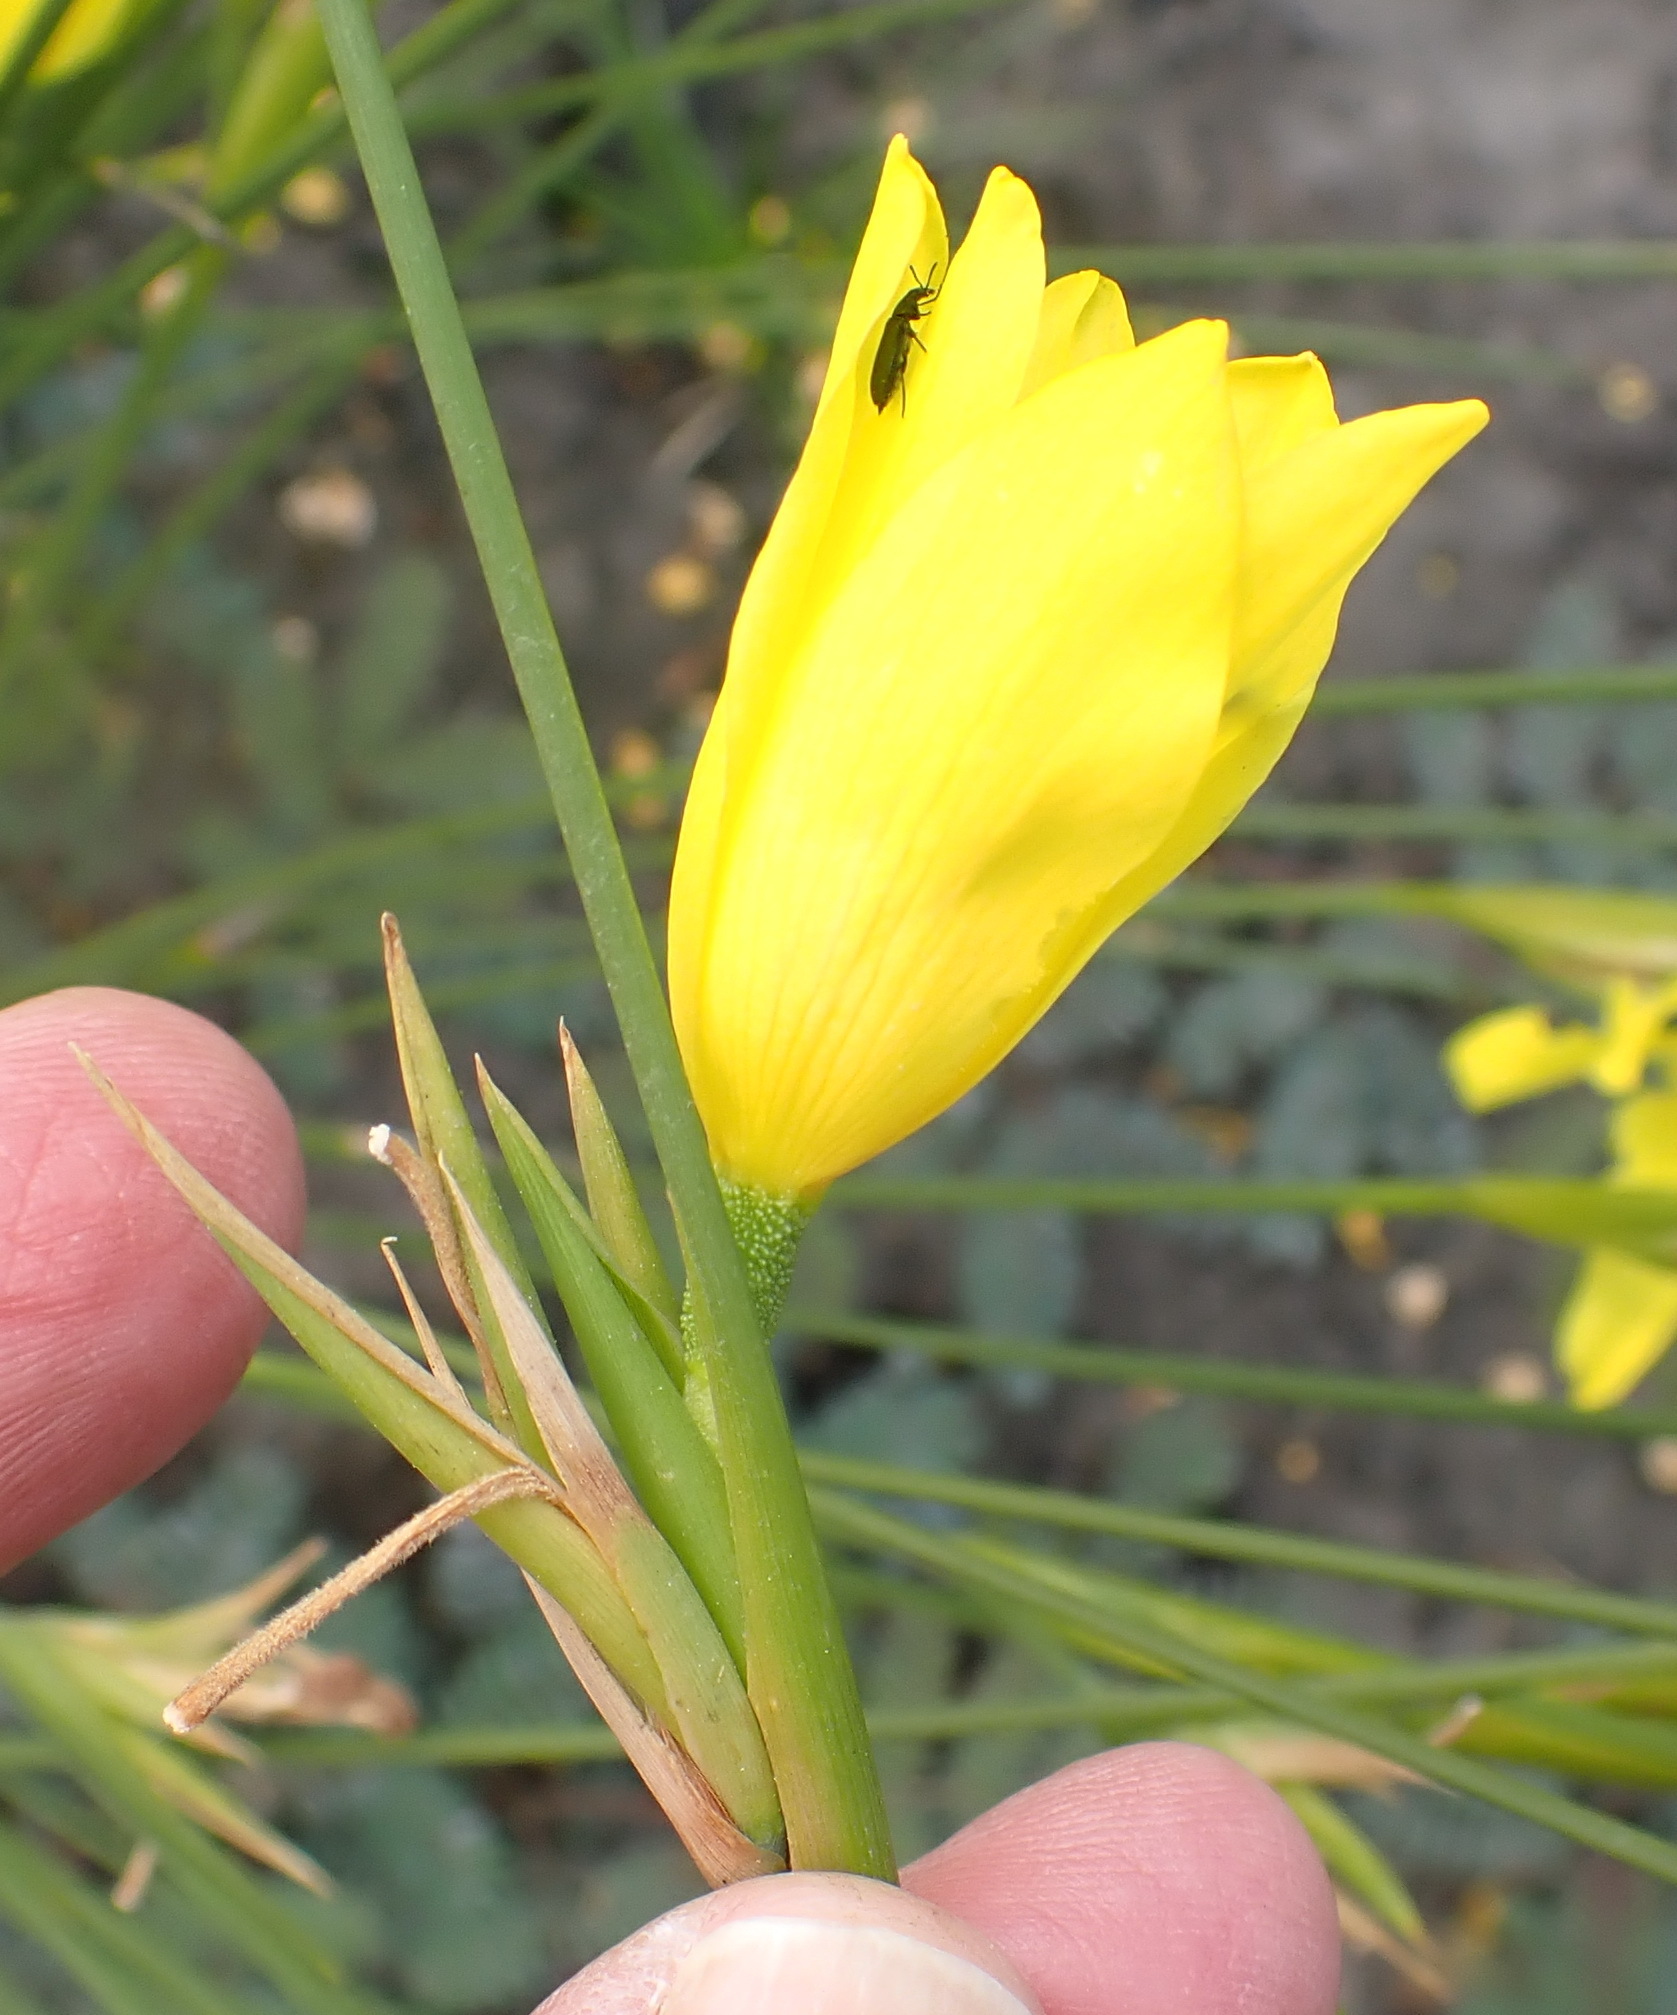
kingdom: Plantae
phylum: Tracheophyta
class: Liliopsida
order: Asparagales
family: Iridaceae
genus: Bobartia
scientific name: Bobartia aphylla
